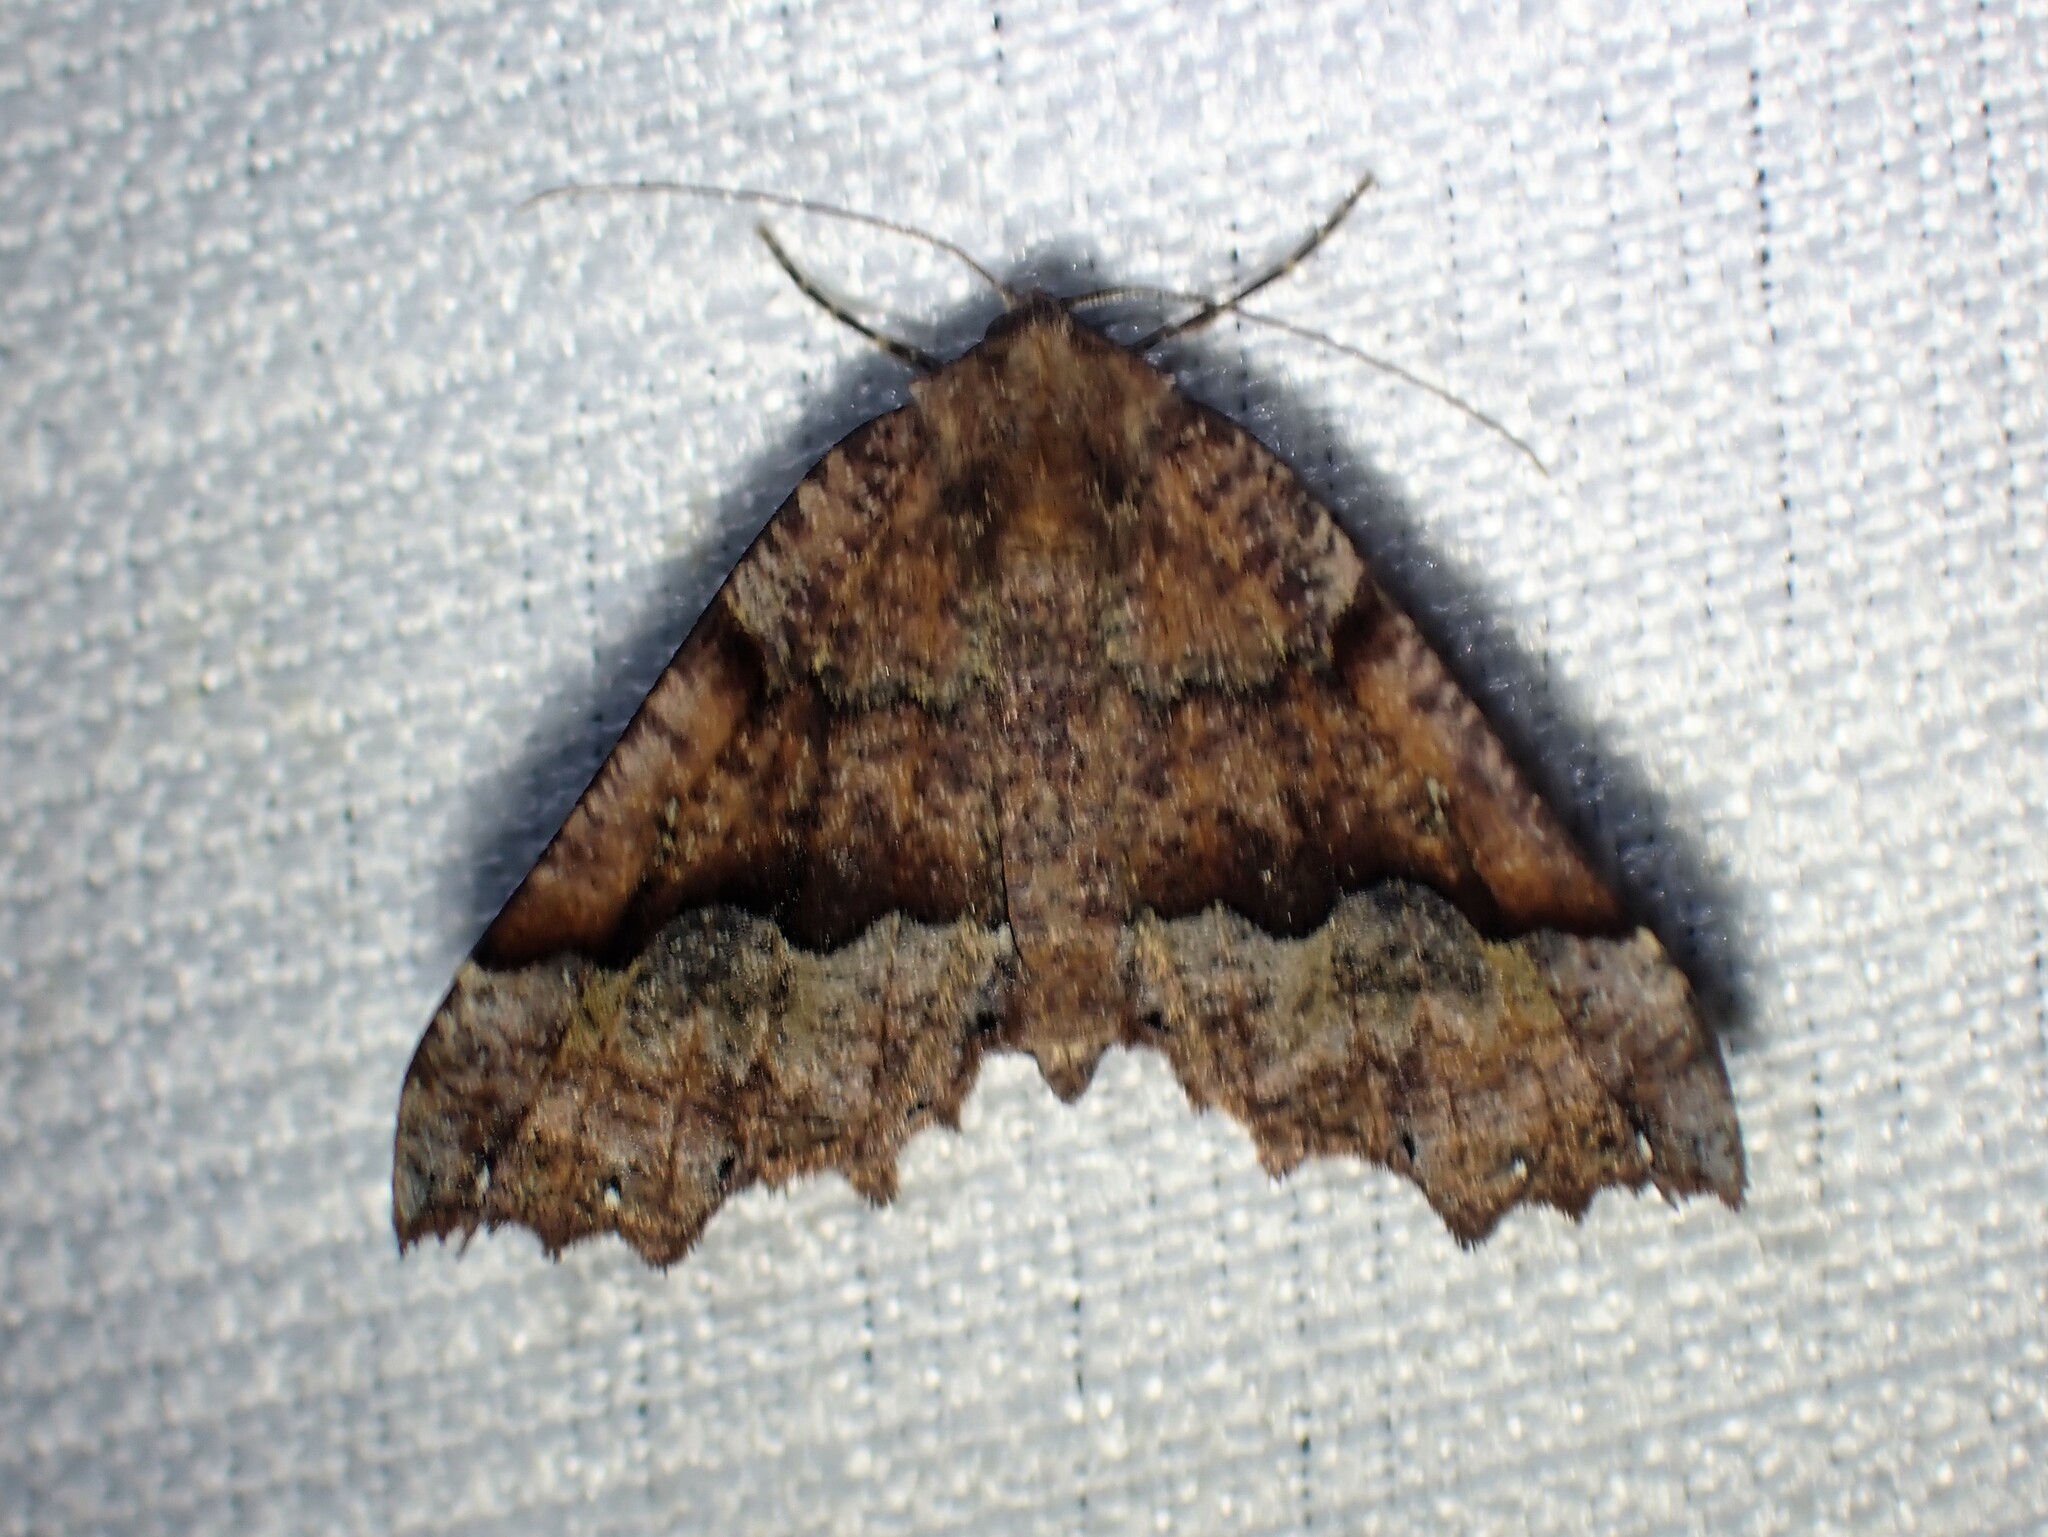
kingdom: Animalia
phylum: Arthropoda
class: Insecta
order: Lepidoptera
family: Geometridae
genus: Pero
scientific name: Pero morrisonaria
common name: Morrison's pero
